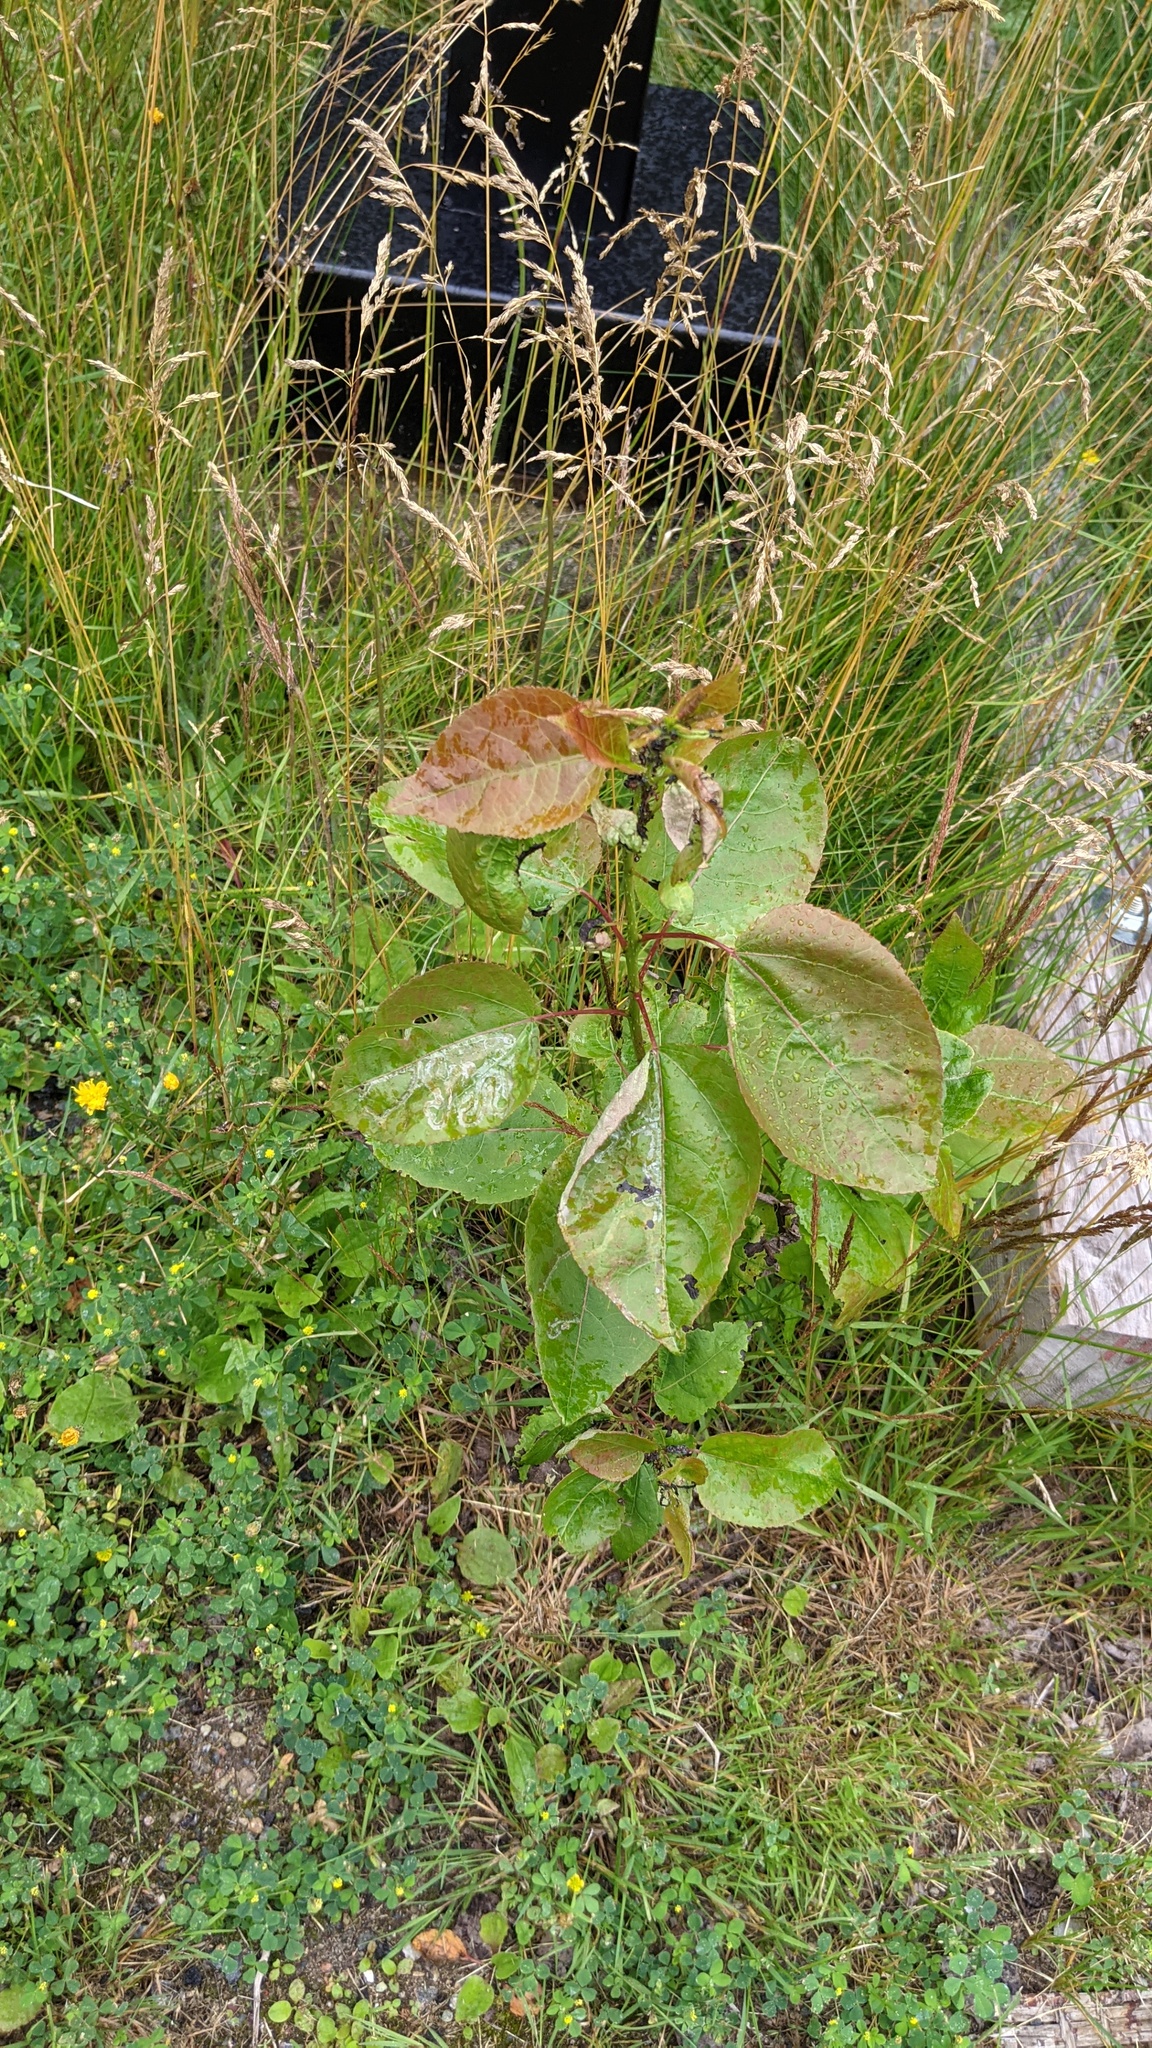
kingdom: Animalia
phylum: Arthropoda
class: Insecta
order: Lepidoptera
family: Gracillariidae
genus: Phyllocnistis
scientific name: Phyllocnistis populiella
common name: Aspen serpentine leafminer moth
